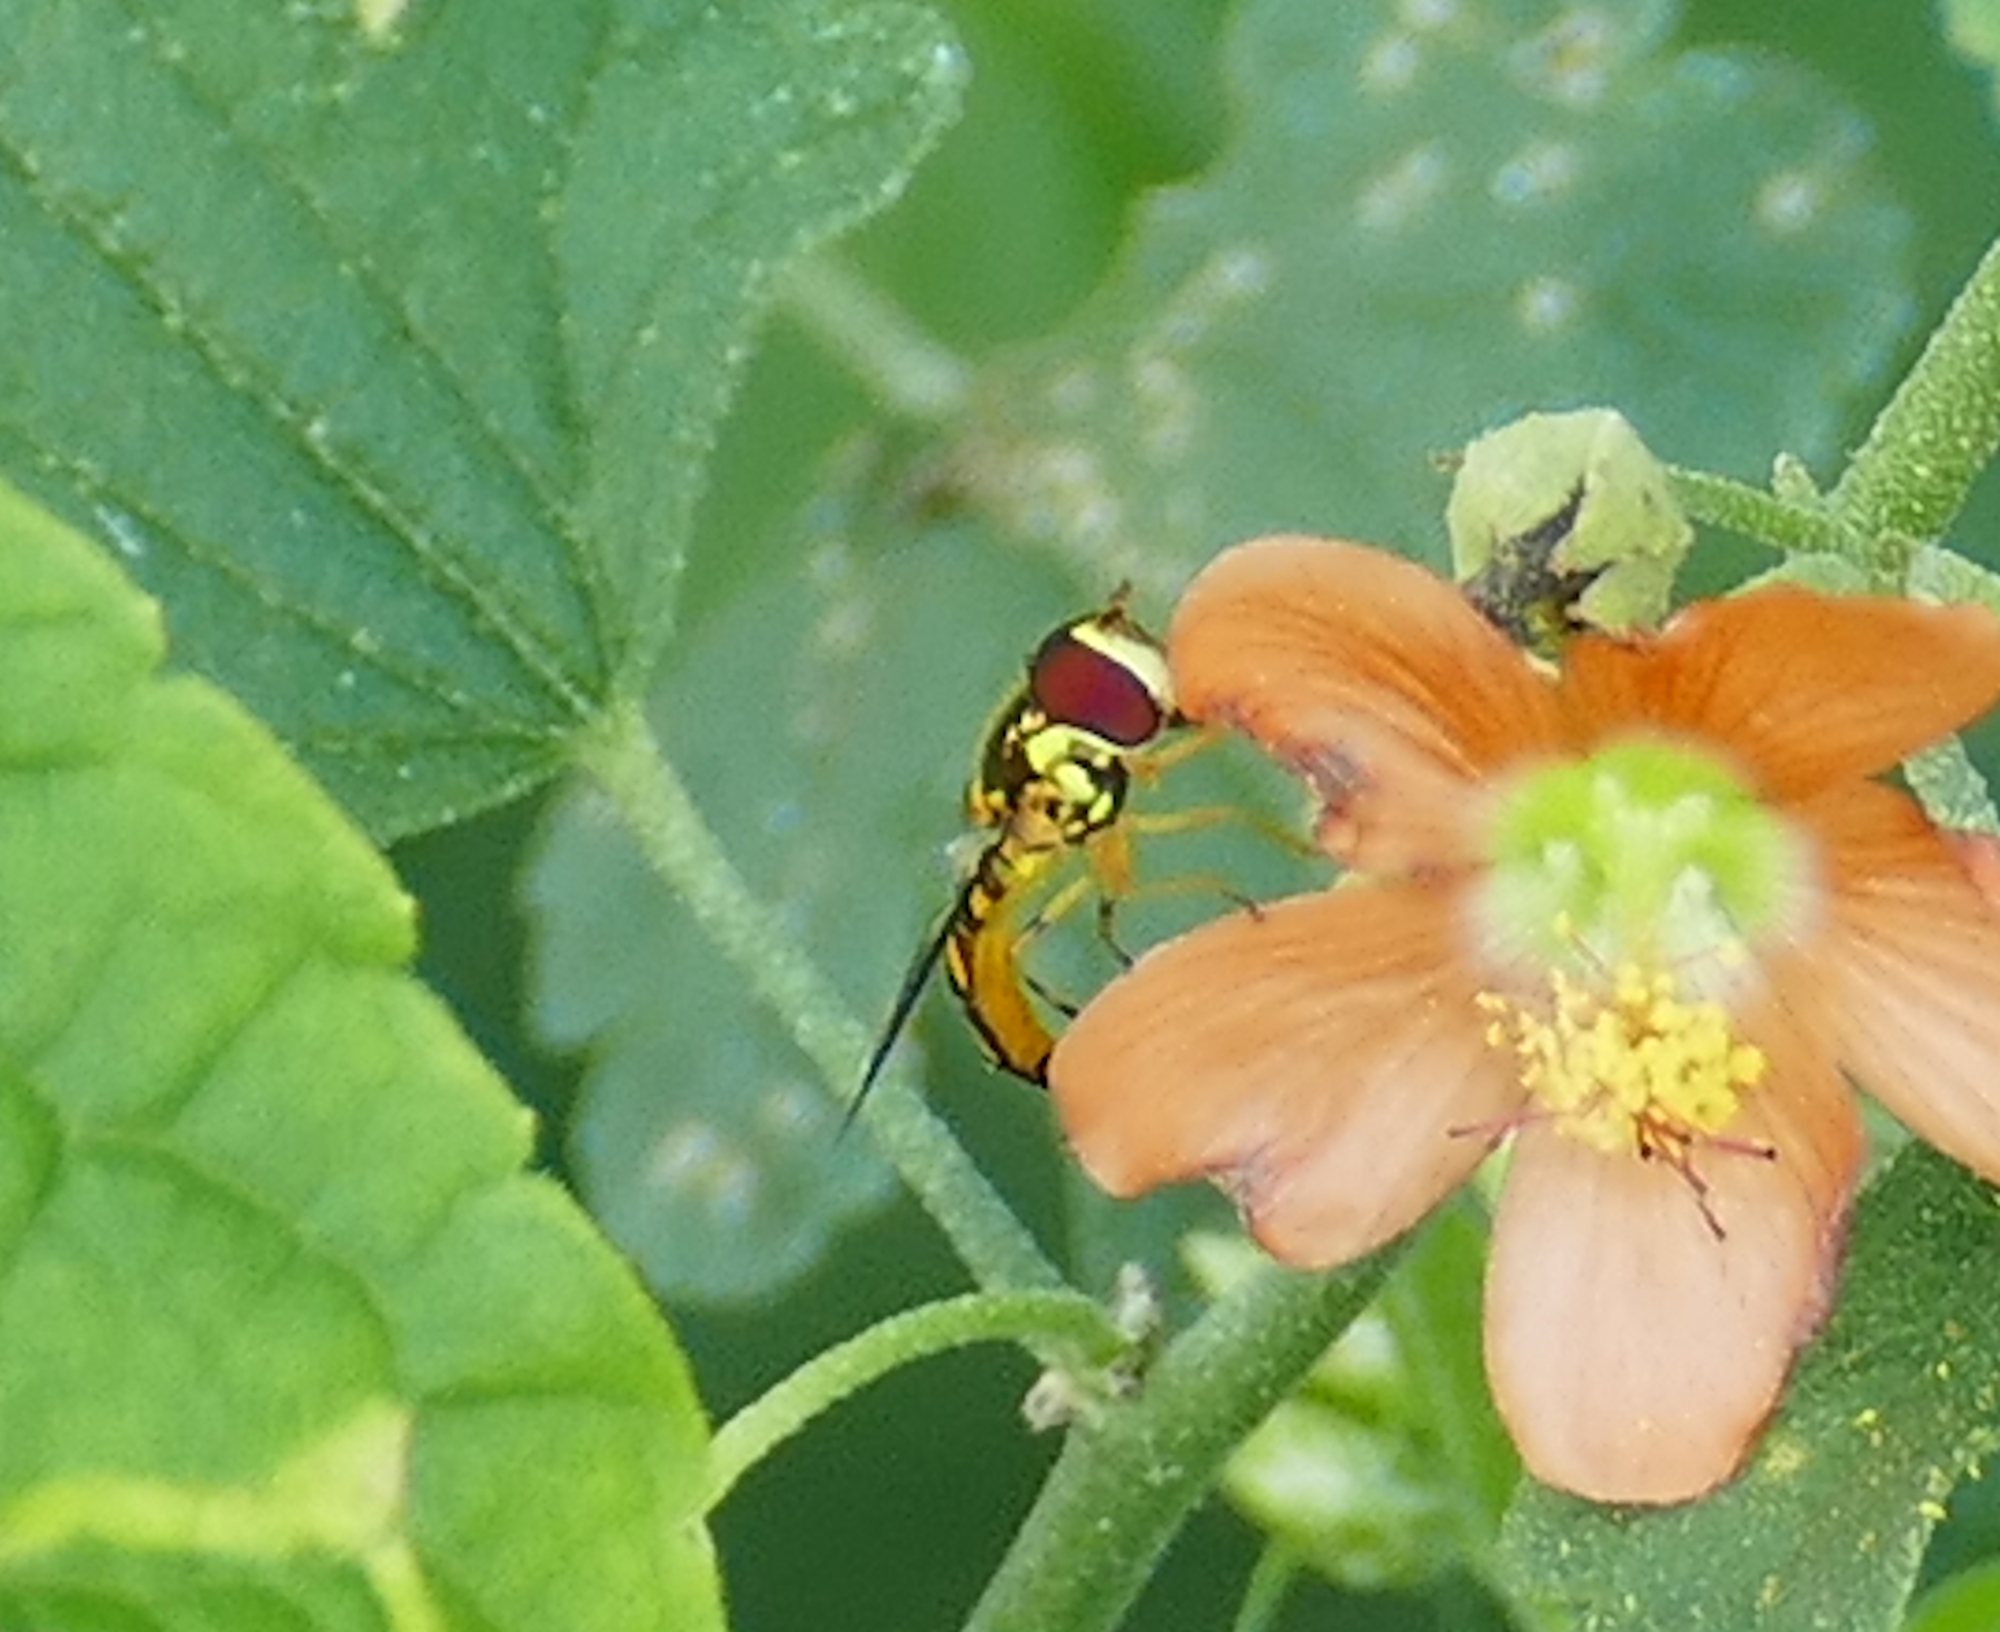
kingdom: Animalia
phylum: Arthropoda
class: Insecta
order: Diptera
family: Syrphidae
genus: Allograpta
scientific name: Allograpta obliqua
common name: Common oblique syrphid
